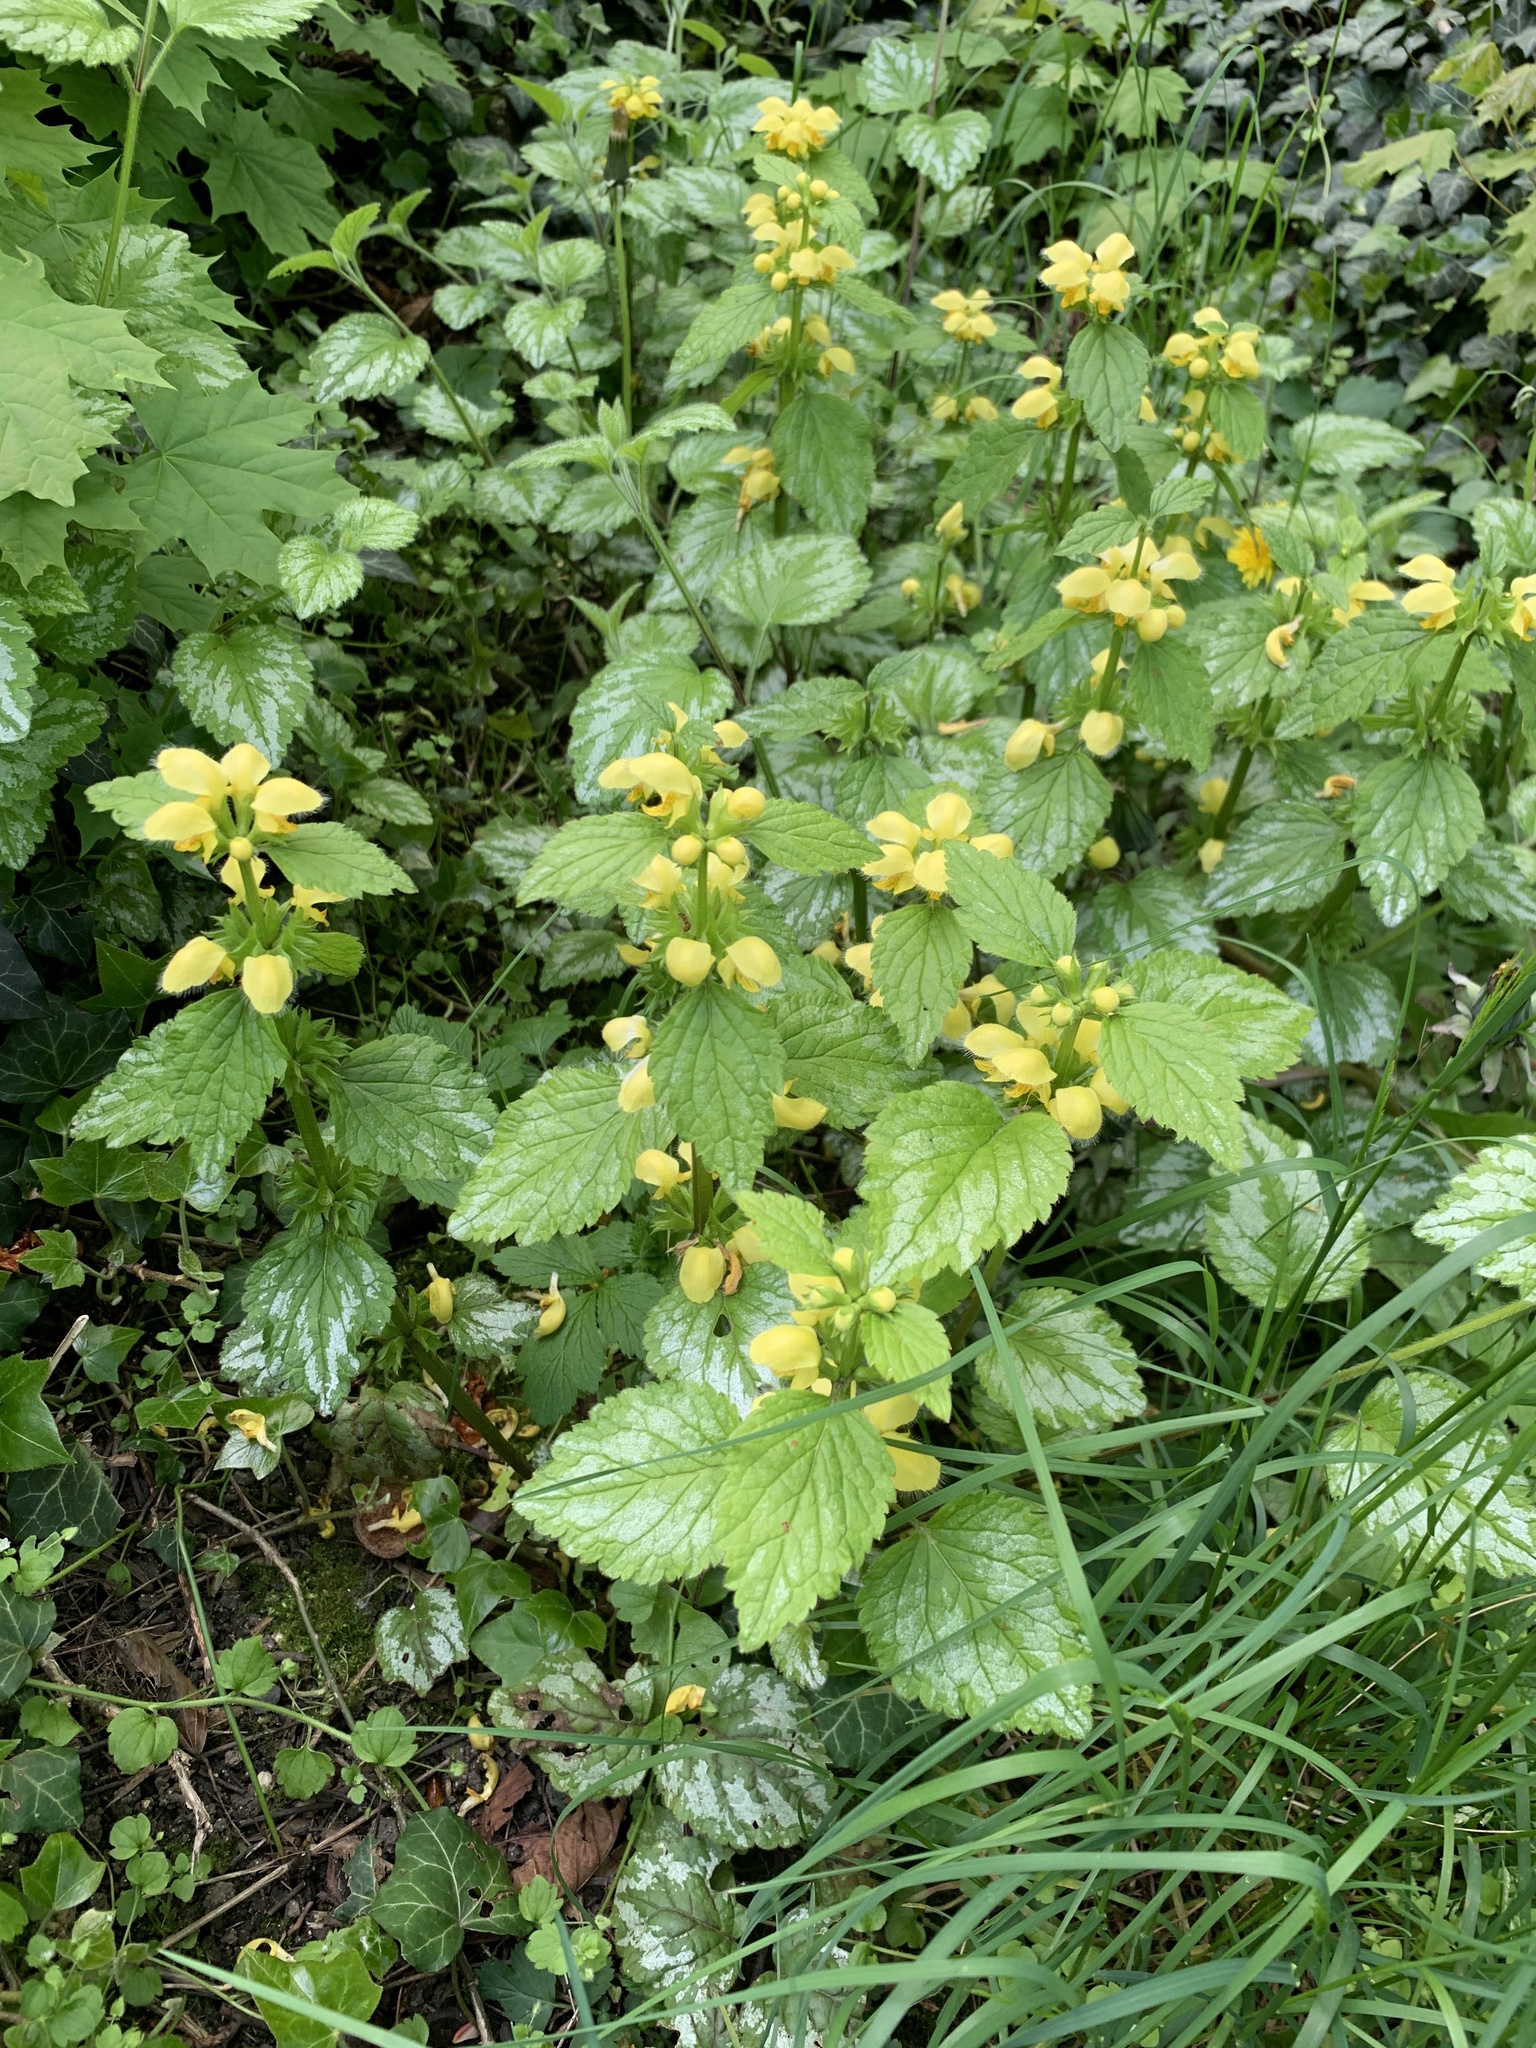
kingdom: Plantae
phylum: Tracheophyta
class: Magnoliopsida
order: Lamiales
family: Lamiaceae
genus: Lamium
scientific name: Lamium galeobdolon
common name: Yellow archangel
